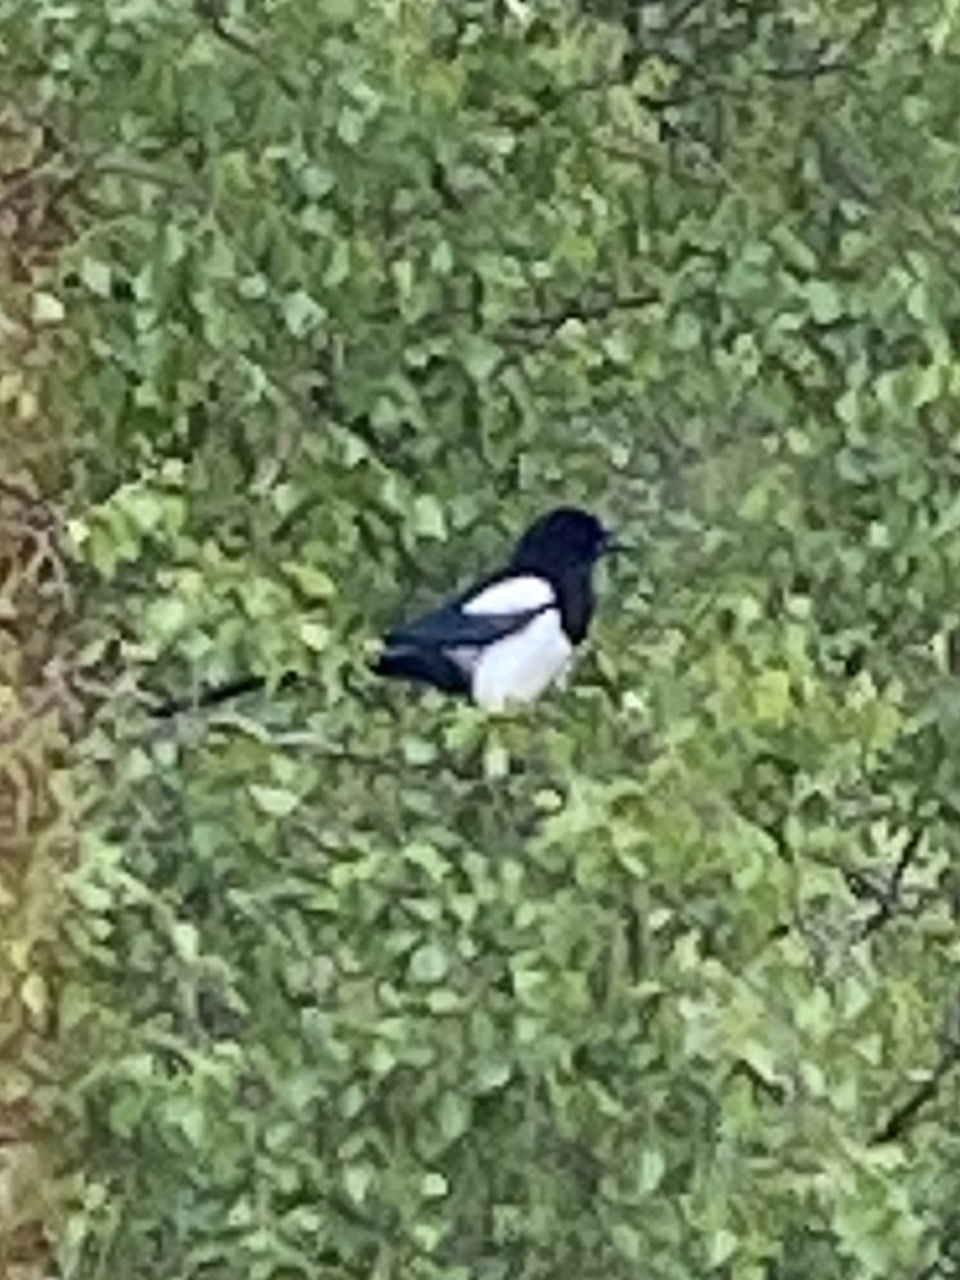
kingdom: Animalia
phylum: Chordata
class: Aves
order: Passeriformes
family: Corvidae
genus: Pica
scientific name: Pica pica
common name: Eurasian magpie
